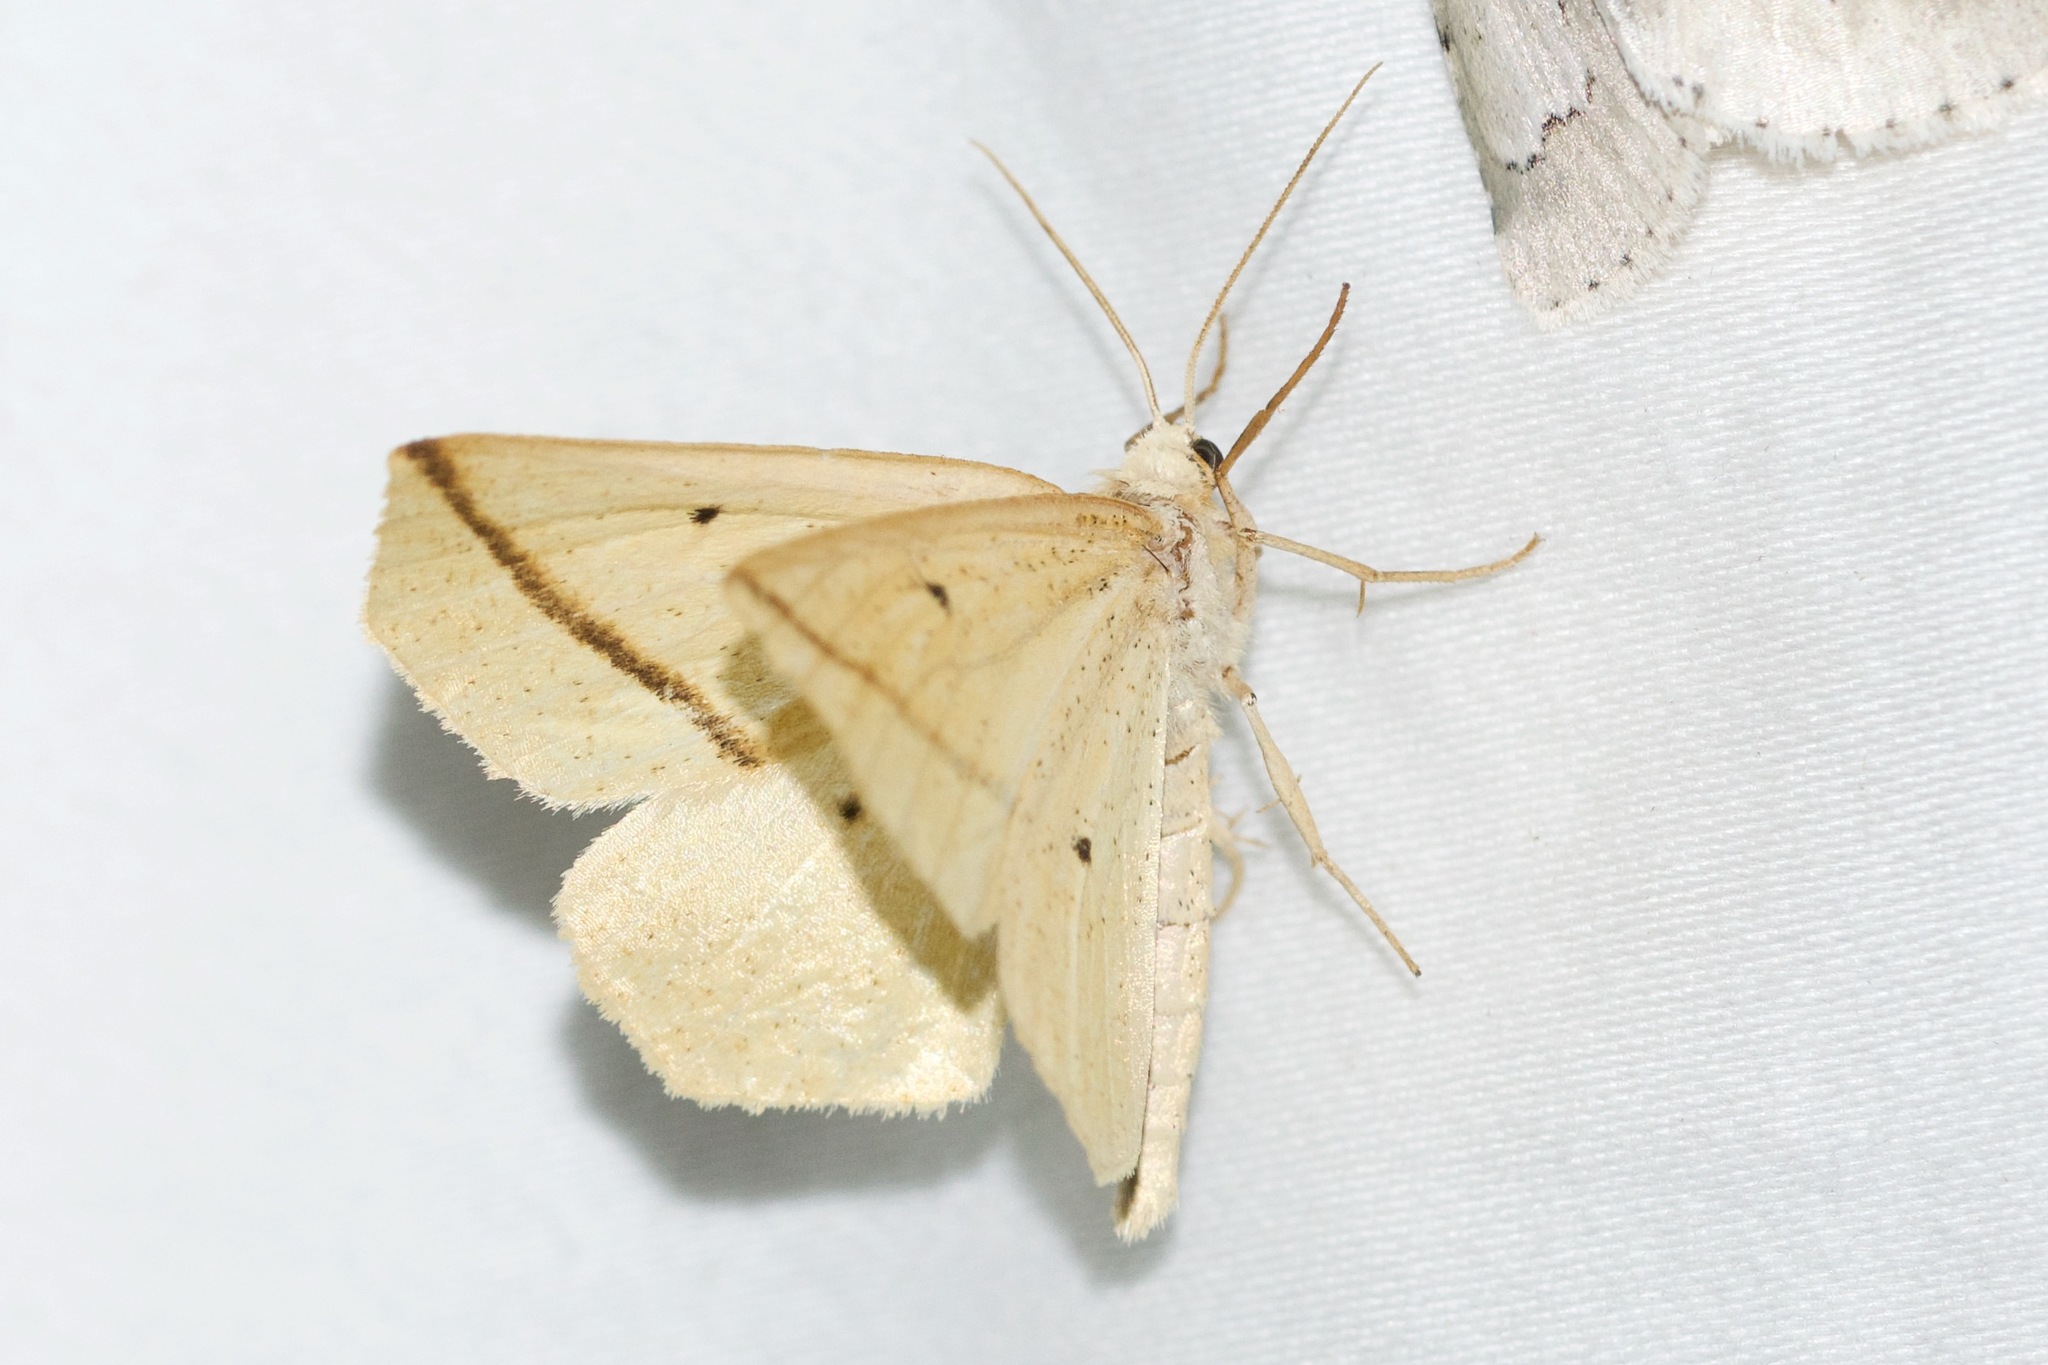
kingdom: Animalia
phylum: Arthropoda
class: Insecta
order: Lepidoptera
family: Geometridae
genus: Tetracis
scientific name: Tetracis crocallata
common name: Yellow slant-line
